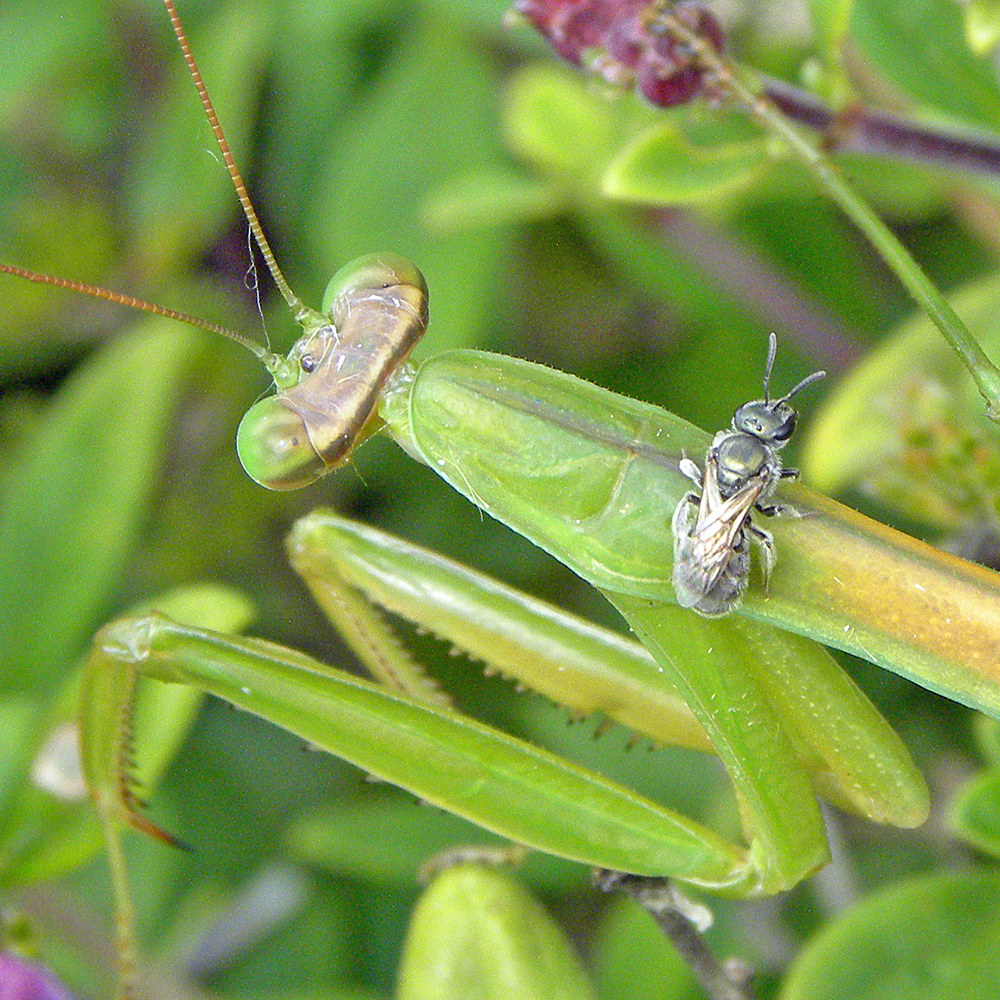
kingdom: Animalia
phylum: Arthropoda
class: Insecta
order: Mantodea
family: Mantidae
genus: Tenodera
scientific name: Tenodera sinensis
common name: Chinese mantis
